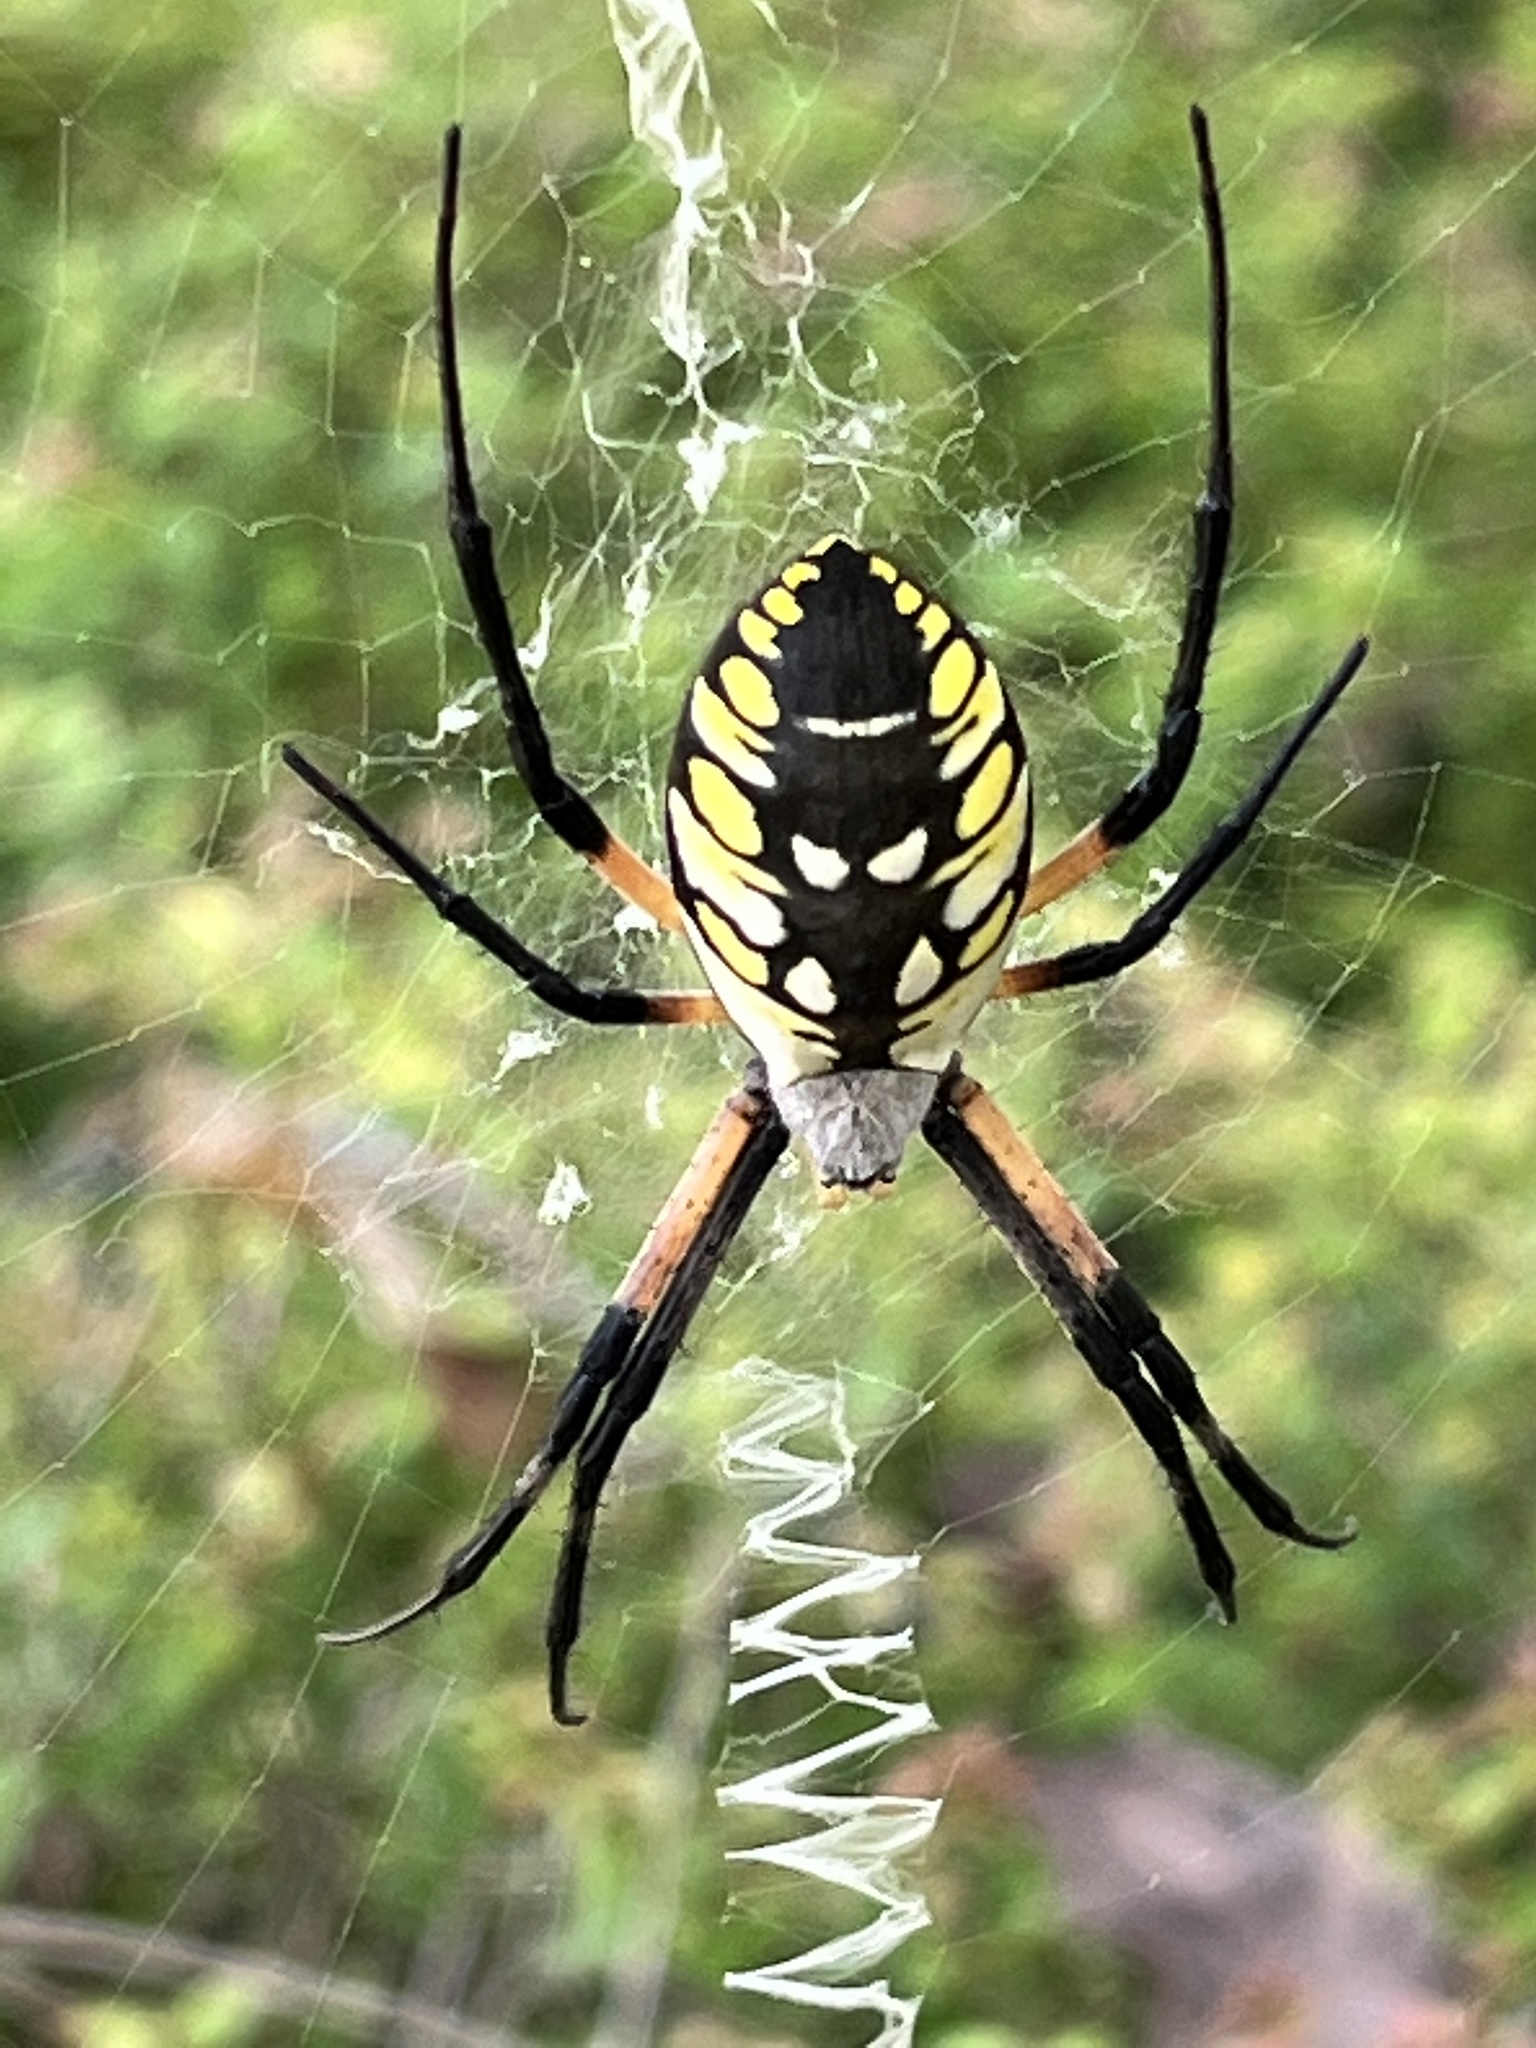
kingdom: Animalia
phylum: Arthropoda
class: Arachnida
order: Araneae
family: Araneidae
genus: Argiope
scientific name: Argiope aurantia
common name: Orb weavers
